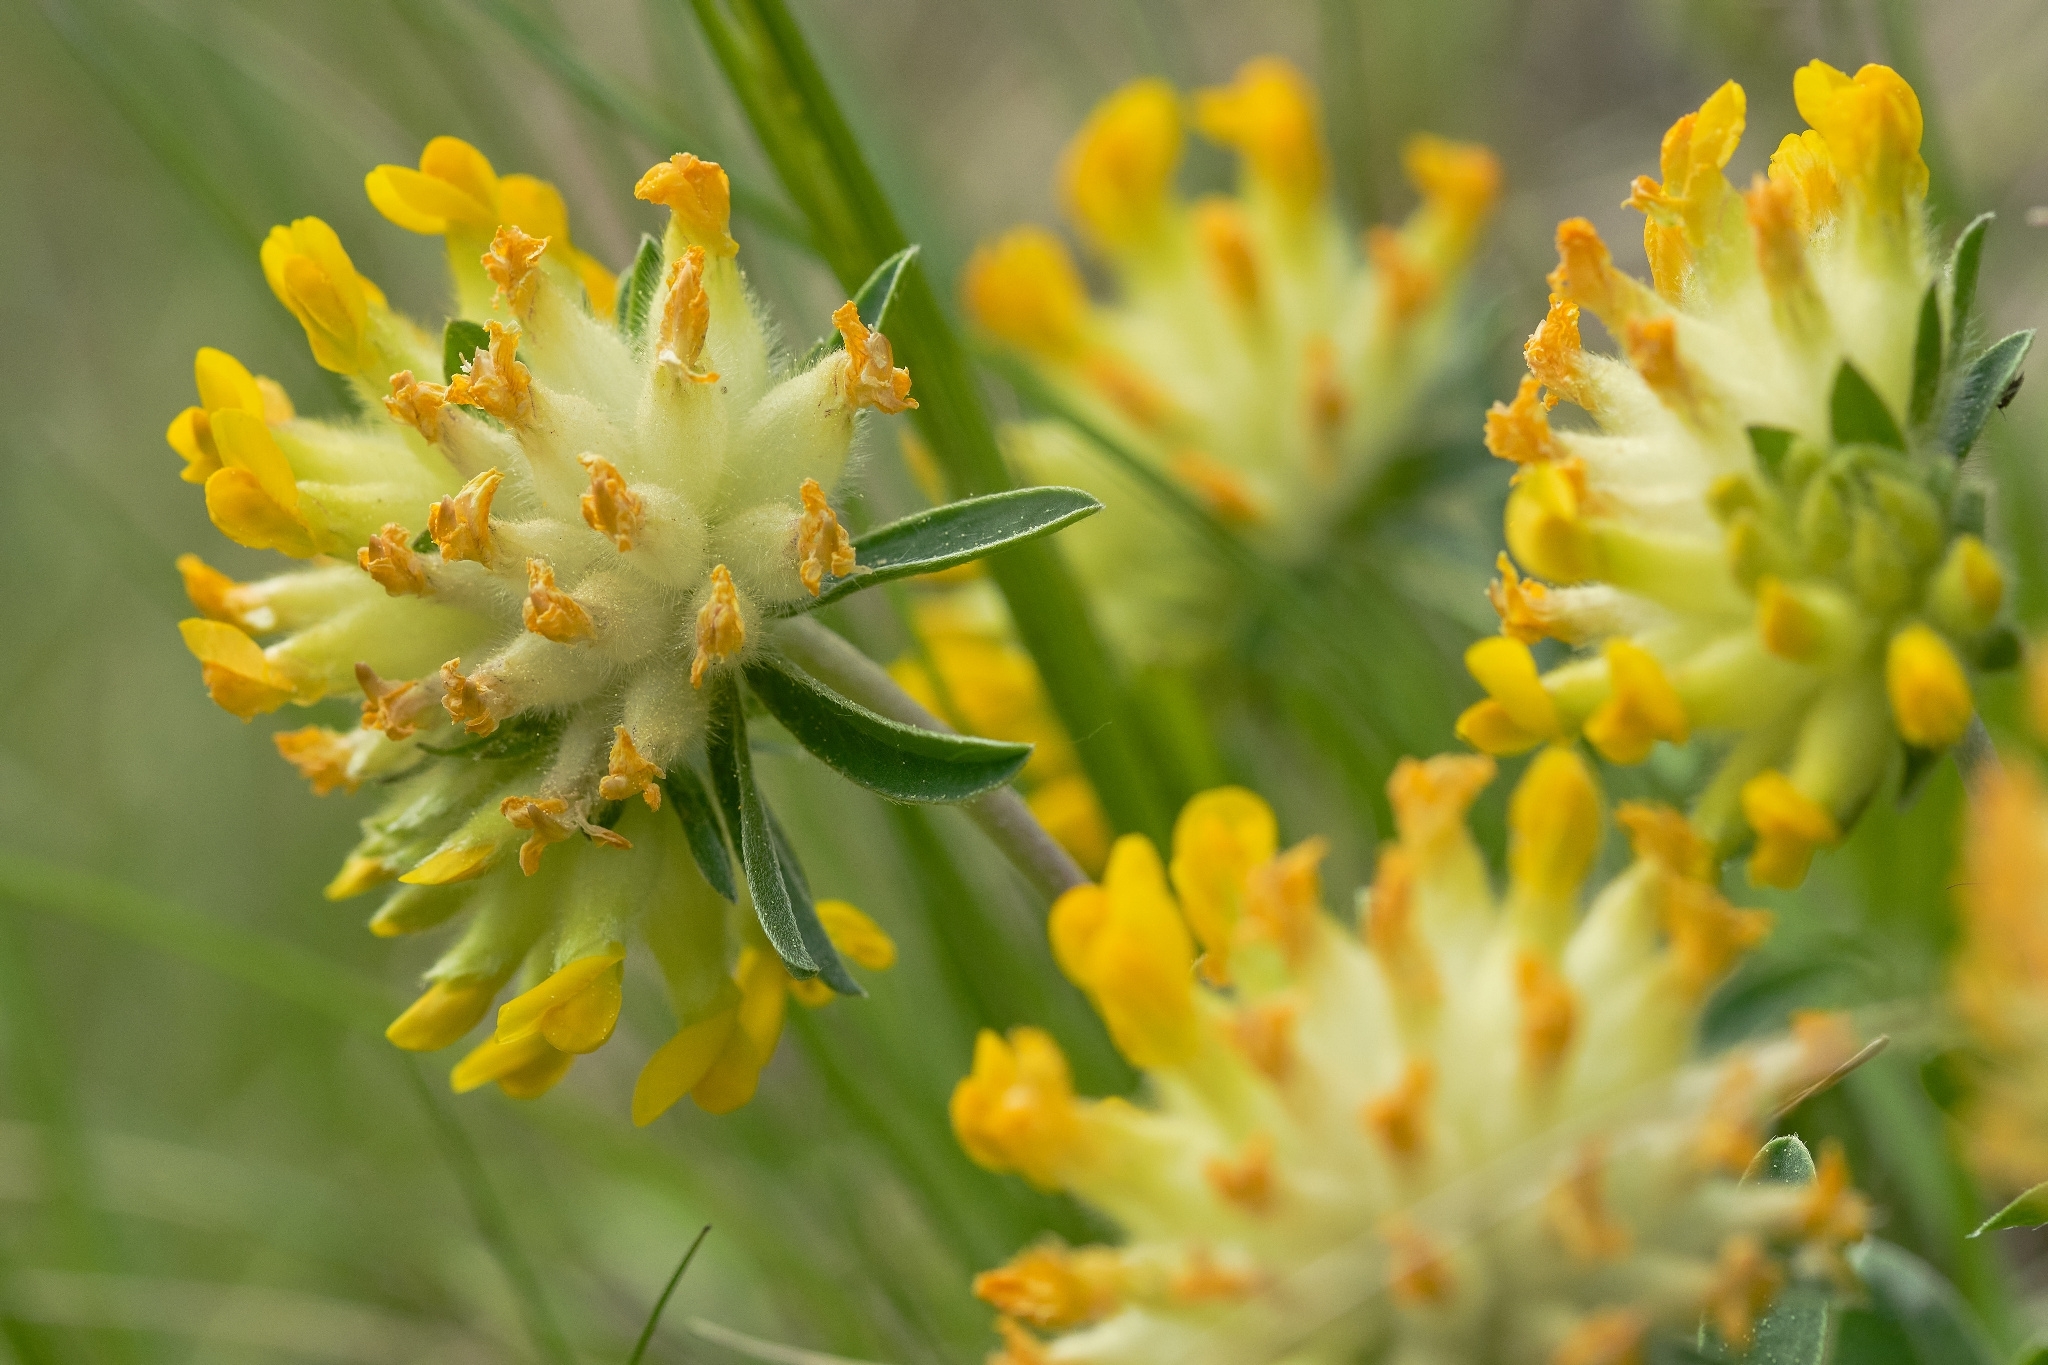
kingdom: Plantae
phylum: Tracheophyta
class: Magnoliopsida
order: Fabales
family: Fabaceae
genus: Anthyllis
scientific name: Anthyllis vulneraria
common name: Kidney vetch
